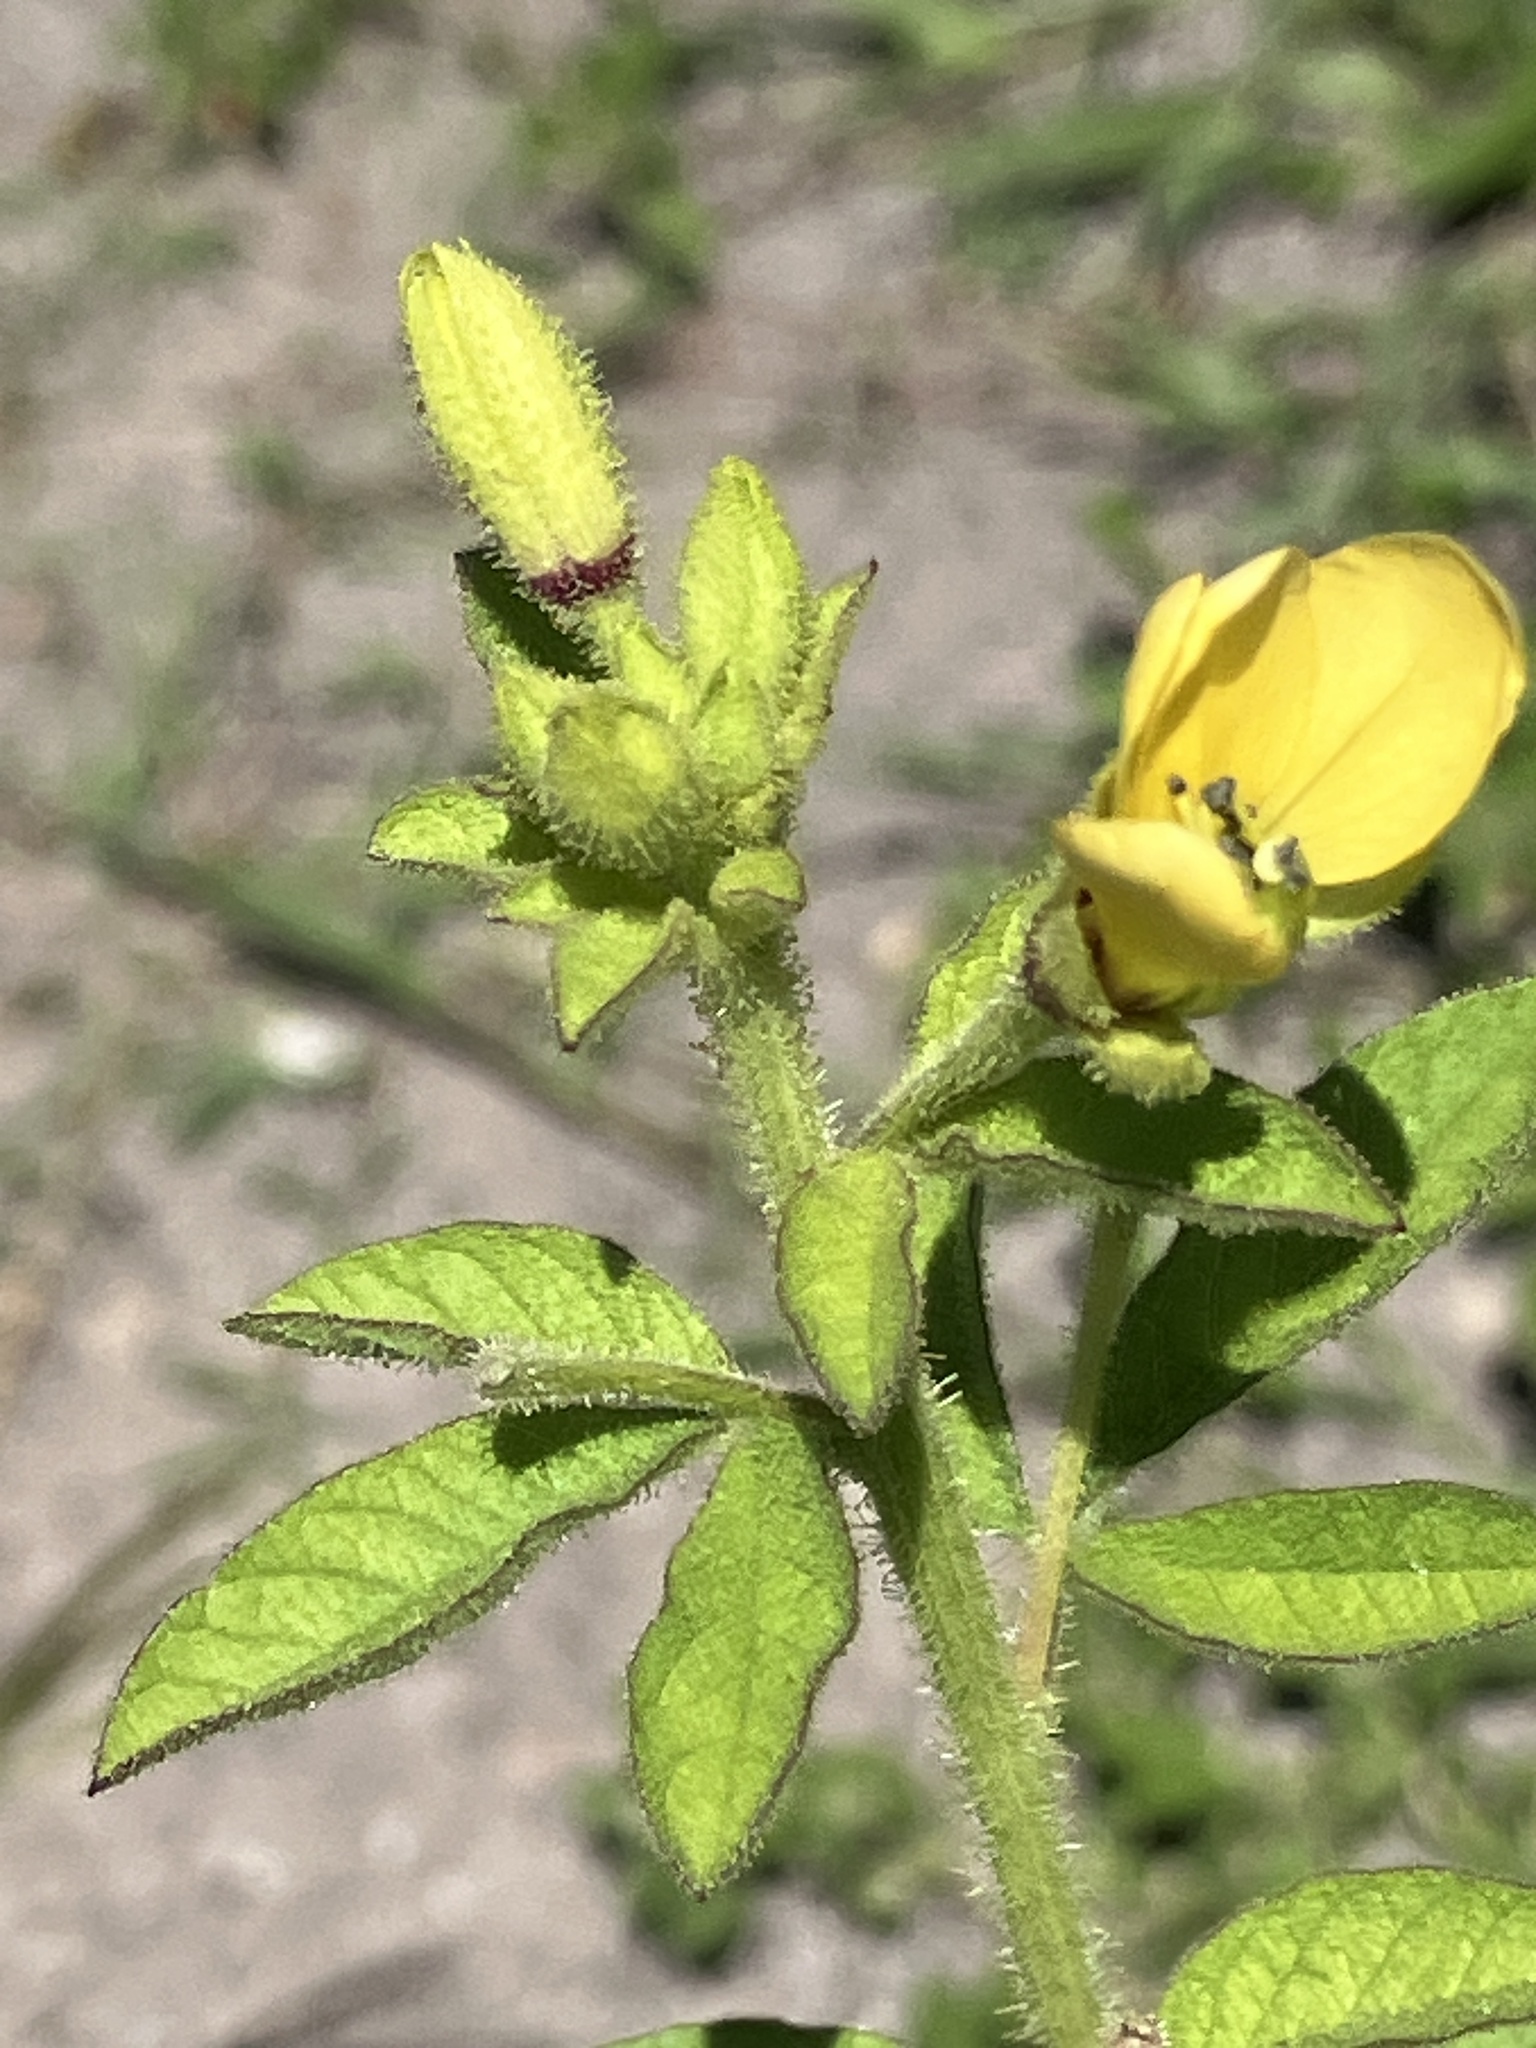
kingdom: Plantae
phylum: Tracheophyta
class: Magnoliopsida
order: Brassicales
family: Cleomaceae
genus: Arivela
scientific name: Arivela viscosa
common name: Asian spiderflower
